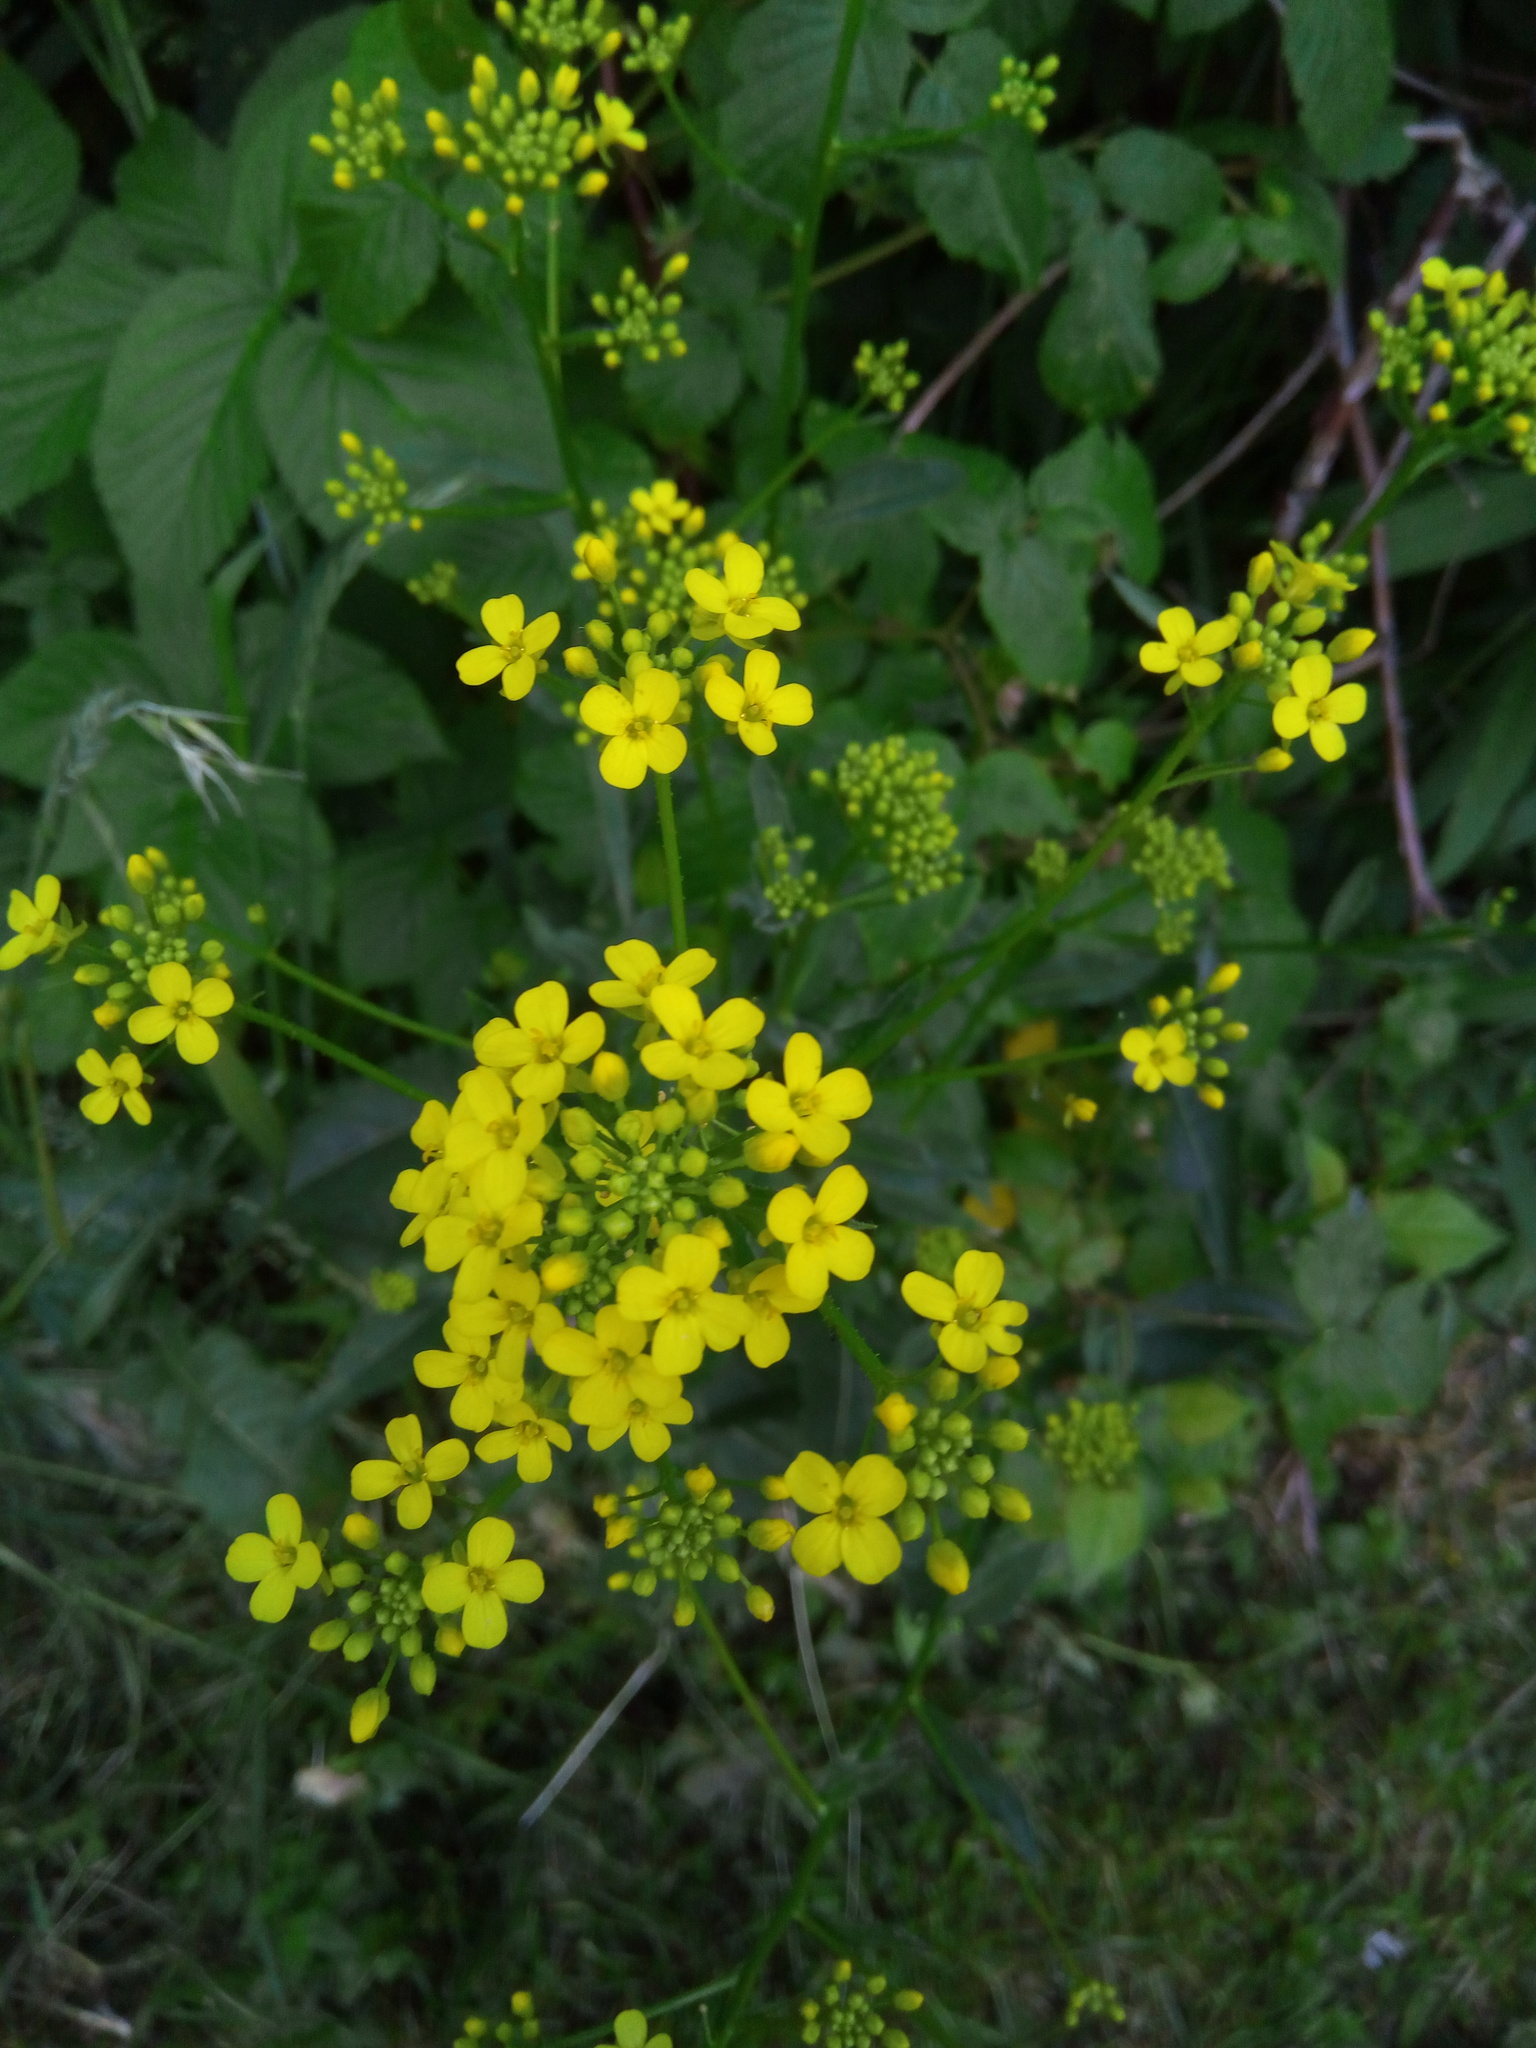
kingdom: Plantae
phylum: Tracheophyta
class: Magnoliopsida
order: Brassicales
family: Brassicaceae
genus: Barbarea
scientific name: Barbarea vulgaris
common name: Cressy-greens
